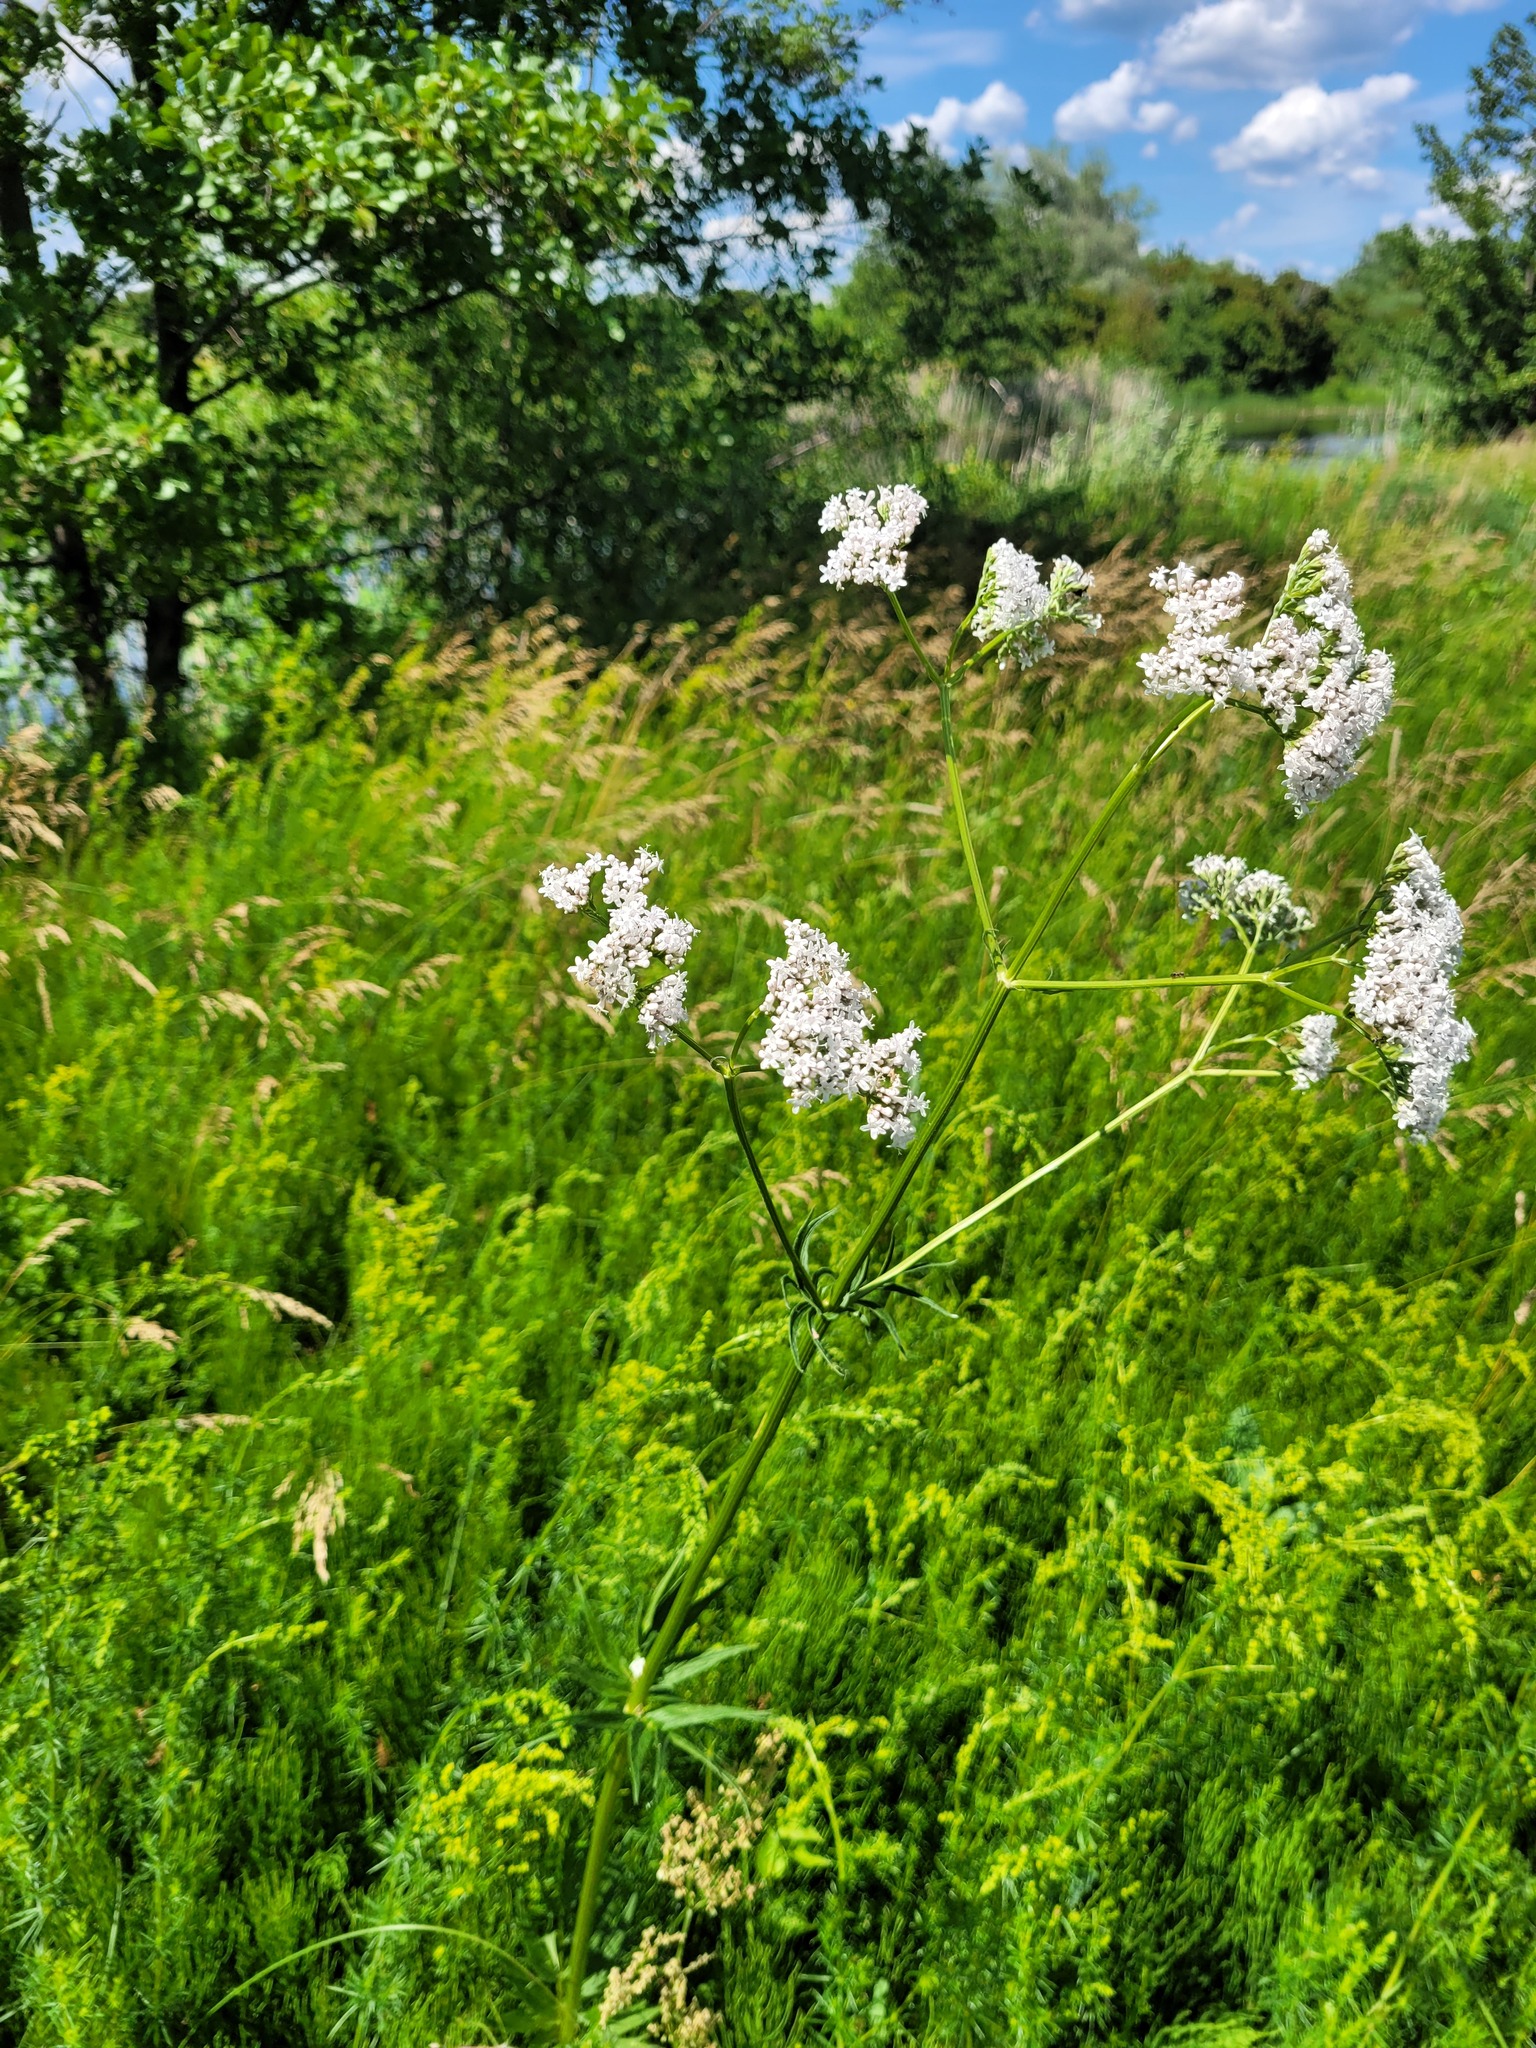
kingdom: Plantae
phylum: Tracheophyta
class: Magnoliopsida
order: Dipsacales
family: Caprifoliaceae
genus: Valeriana
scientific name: Valeriana officinalis
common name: Common valerian
